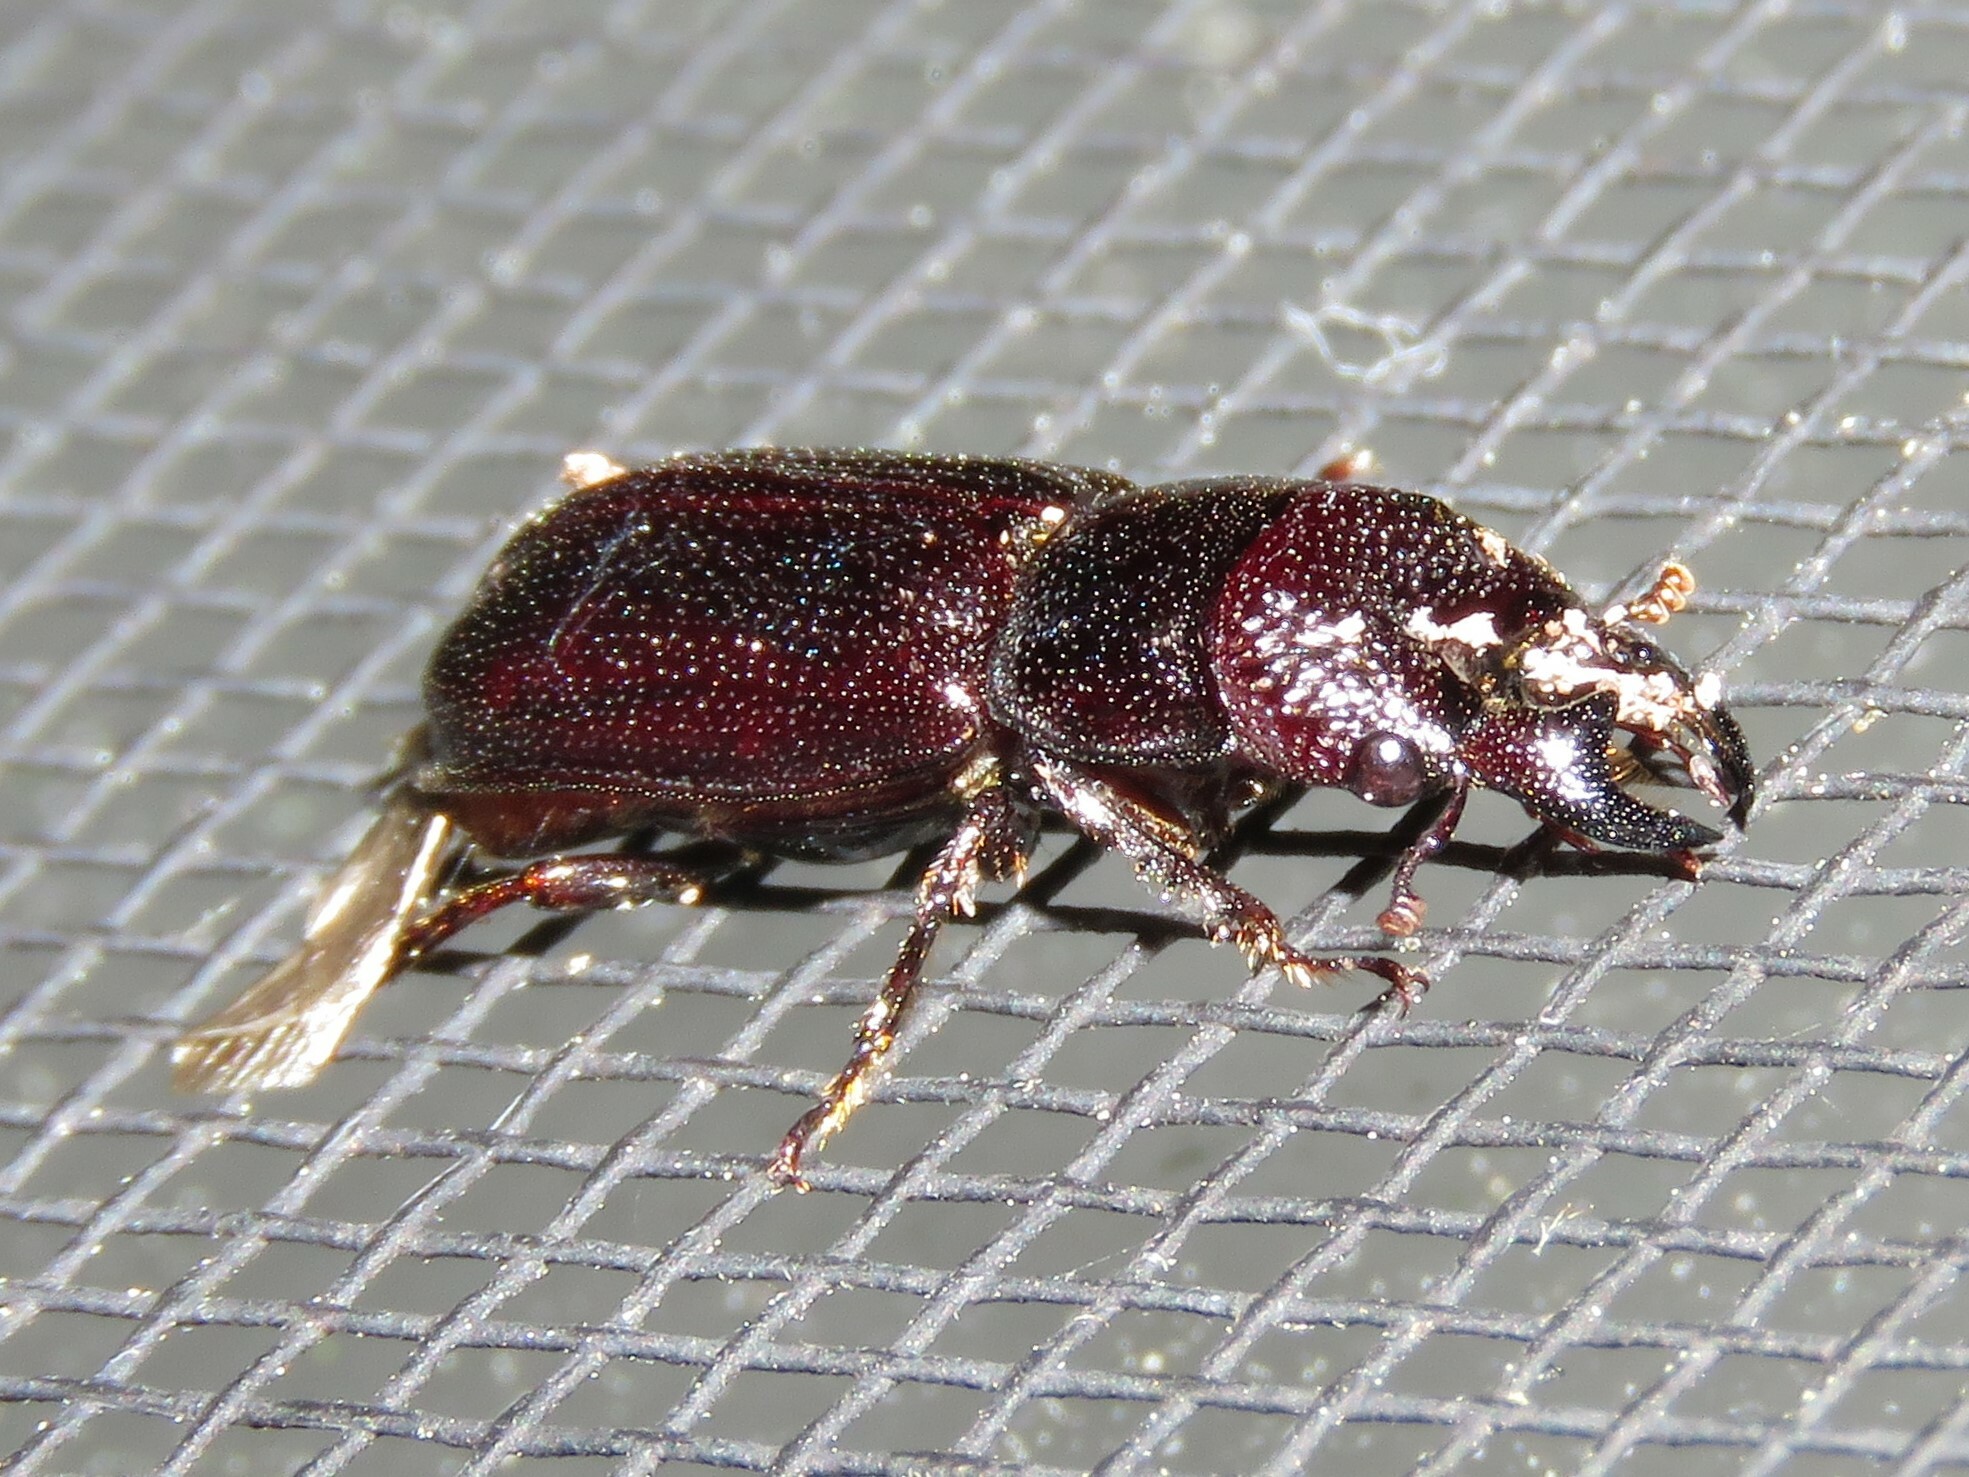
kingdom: Animalia
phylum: Arthropoda
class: Insecta
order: Coleoptera
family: Lucanidae
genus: Ceruchus
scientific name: Ceruchus piceus
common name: Red-rot decay stag beetle
